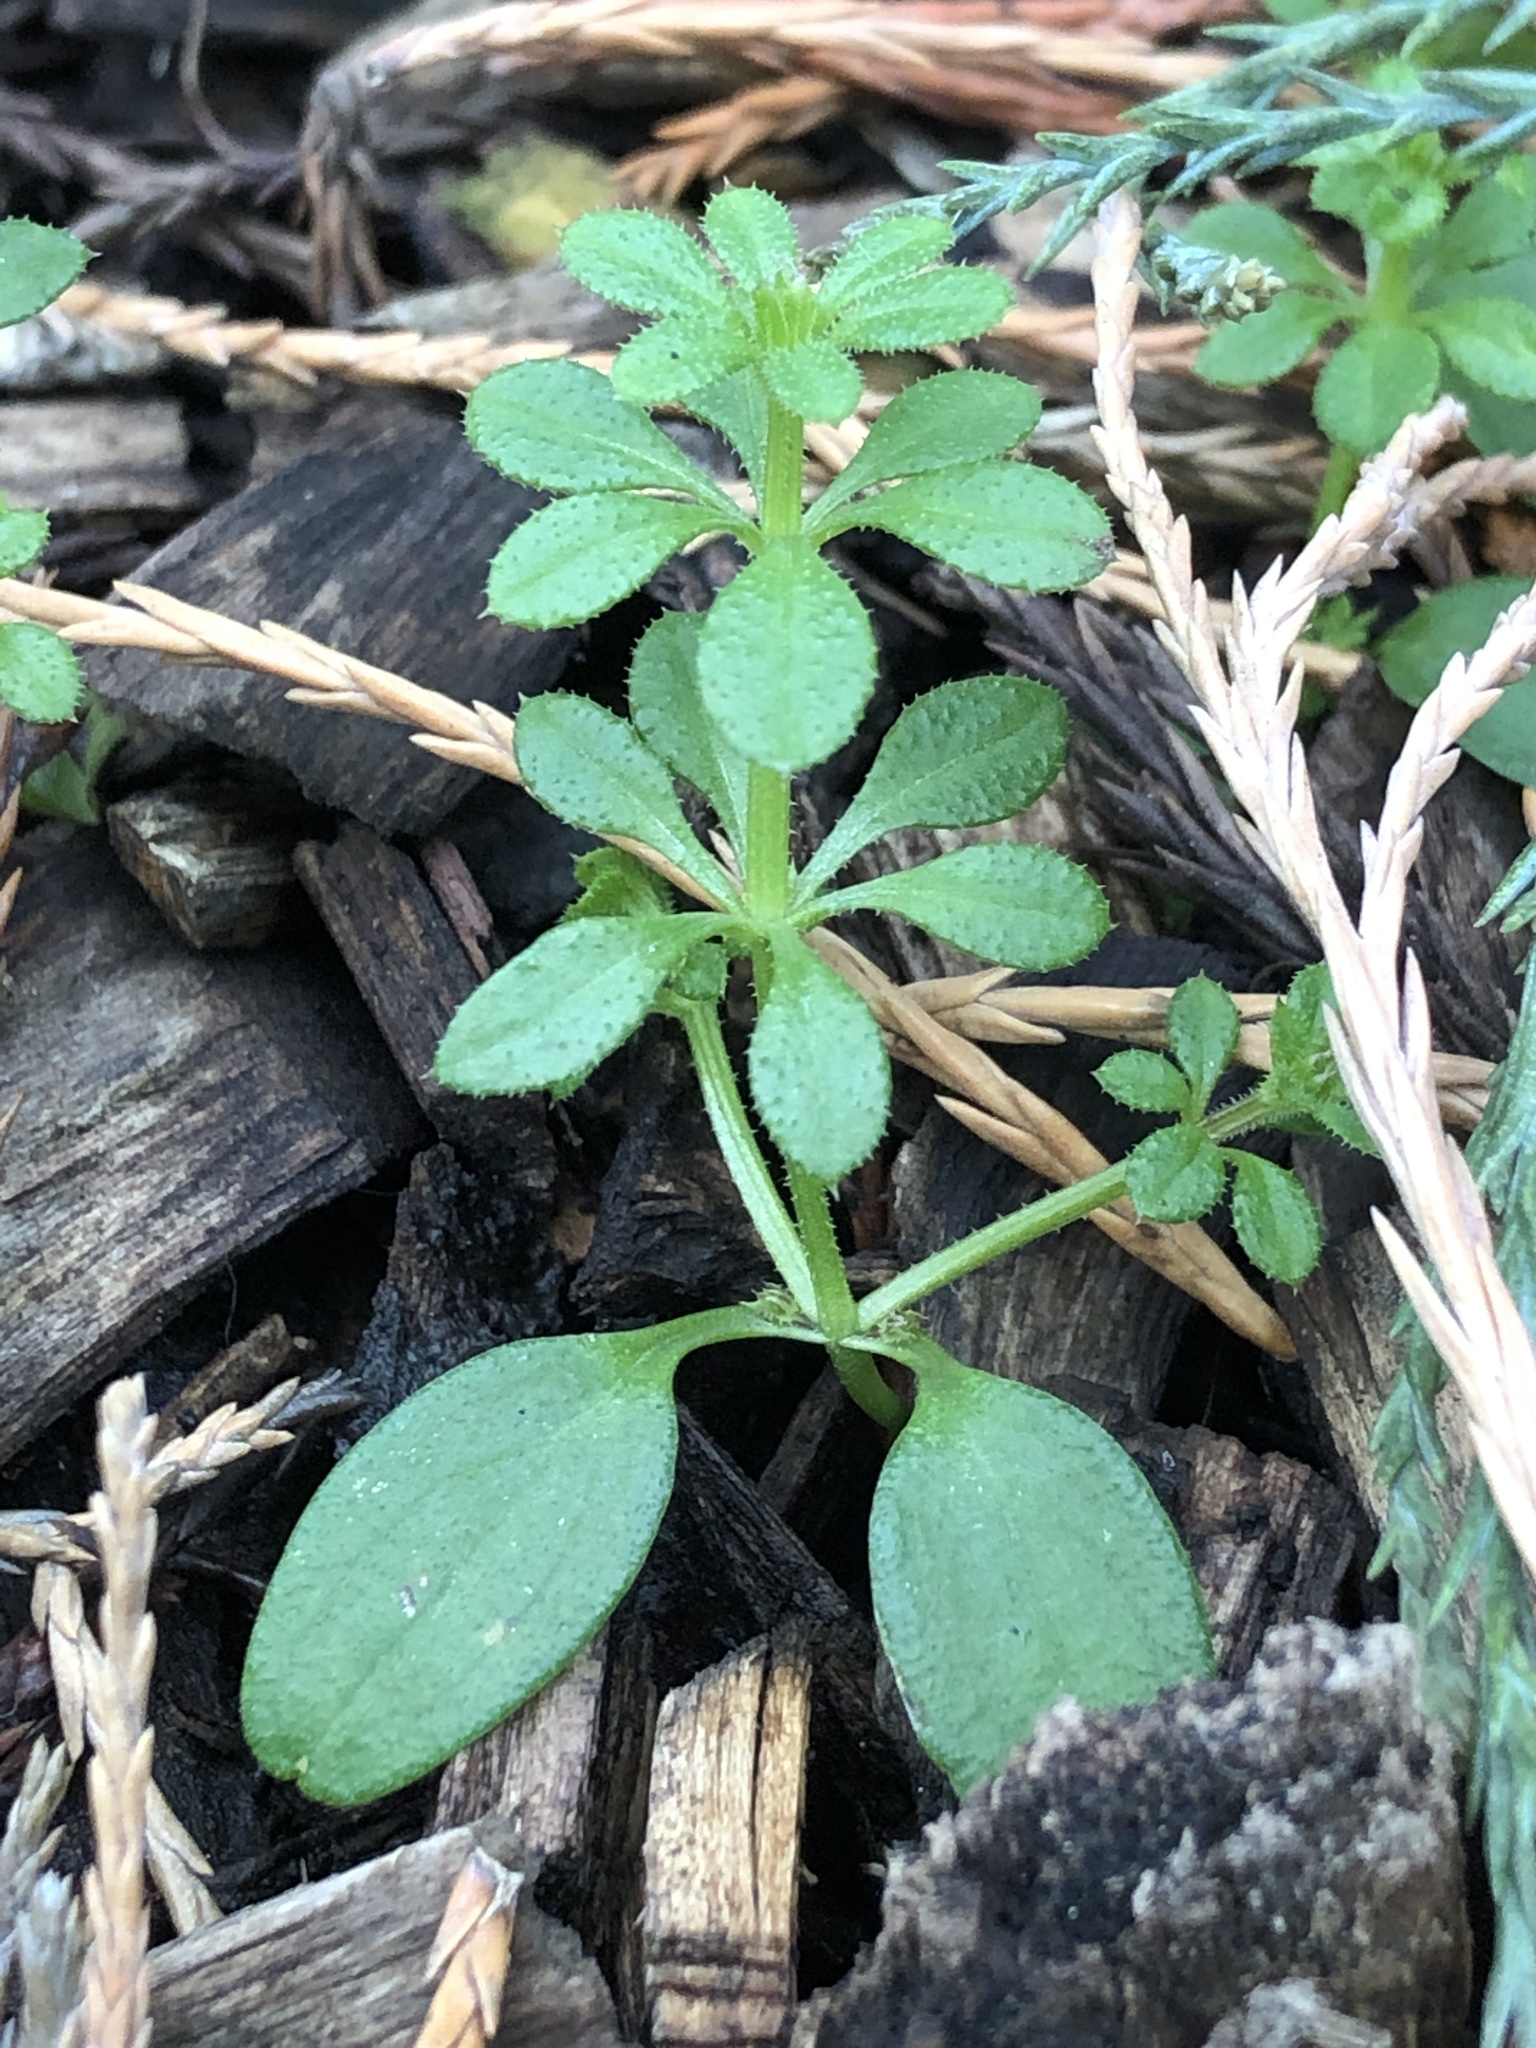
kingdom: Plantae
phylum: Tracheophyta
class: Magnoliopsida
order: Gentianales
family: Rubiaceae
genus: Galium
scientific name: Galium aparine
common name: Cleavers
